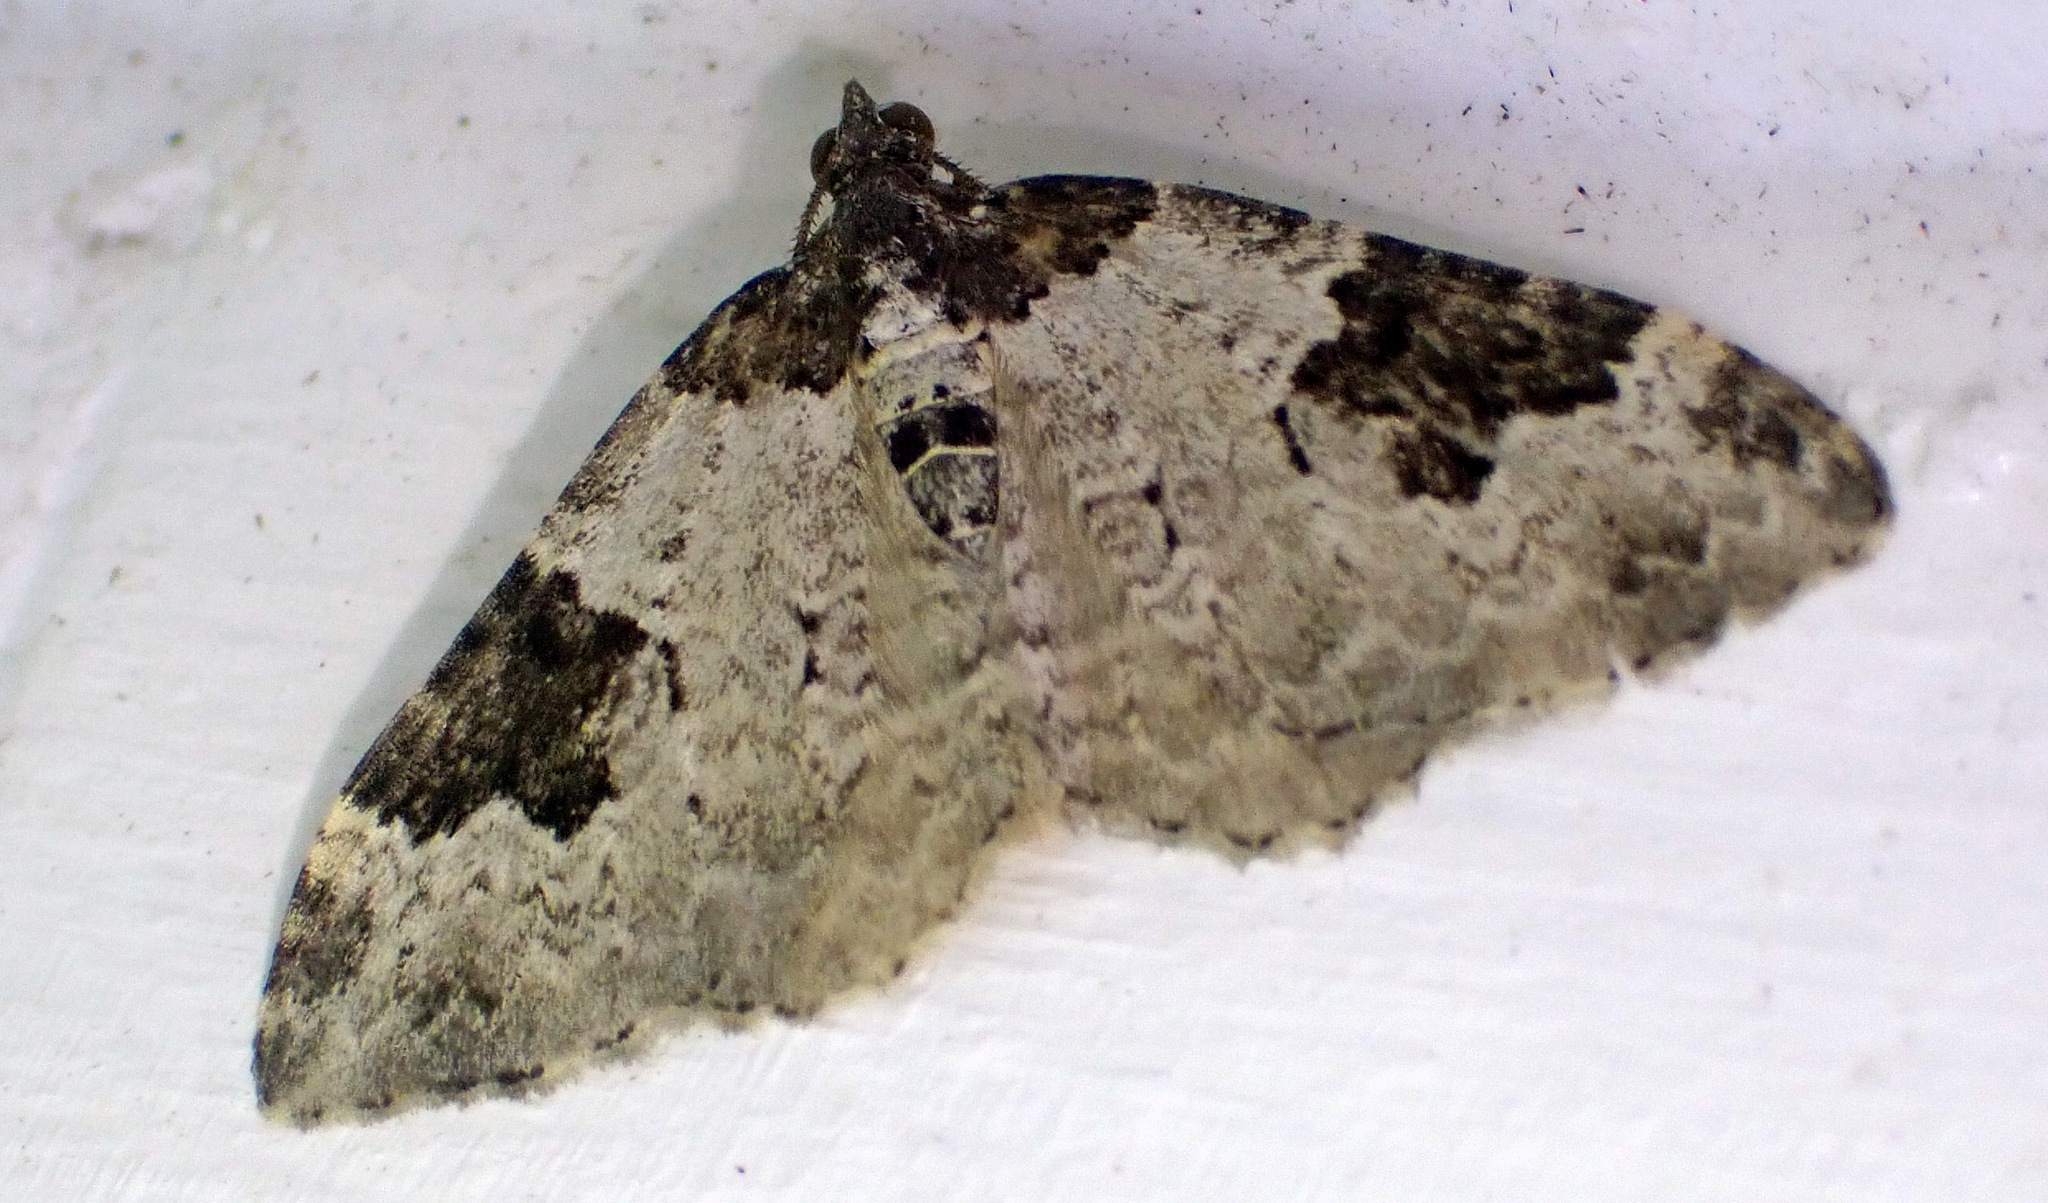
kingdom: Animalia
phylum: Arthropoda
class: Insecta
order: Lepidoptera
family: Geometridae
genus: Xanthorhoe
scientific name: Xanthorhoe fluctuata
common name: Garden carpet
